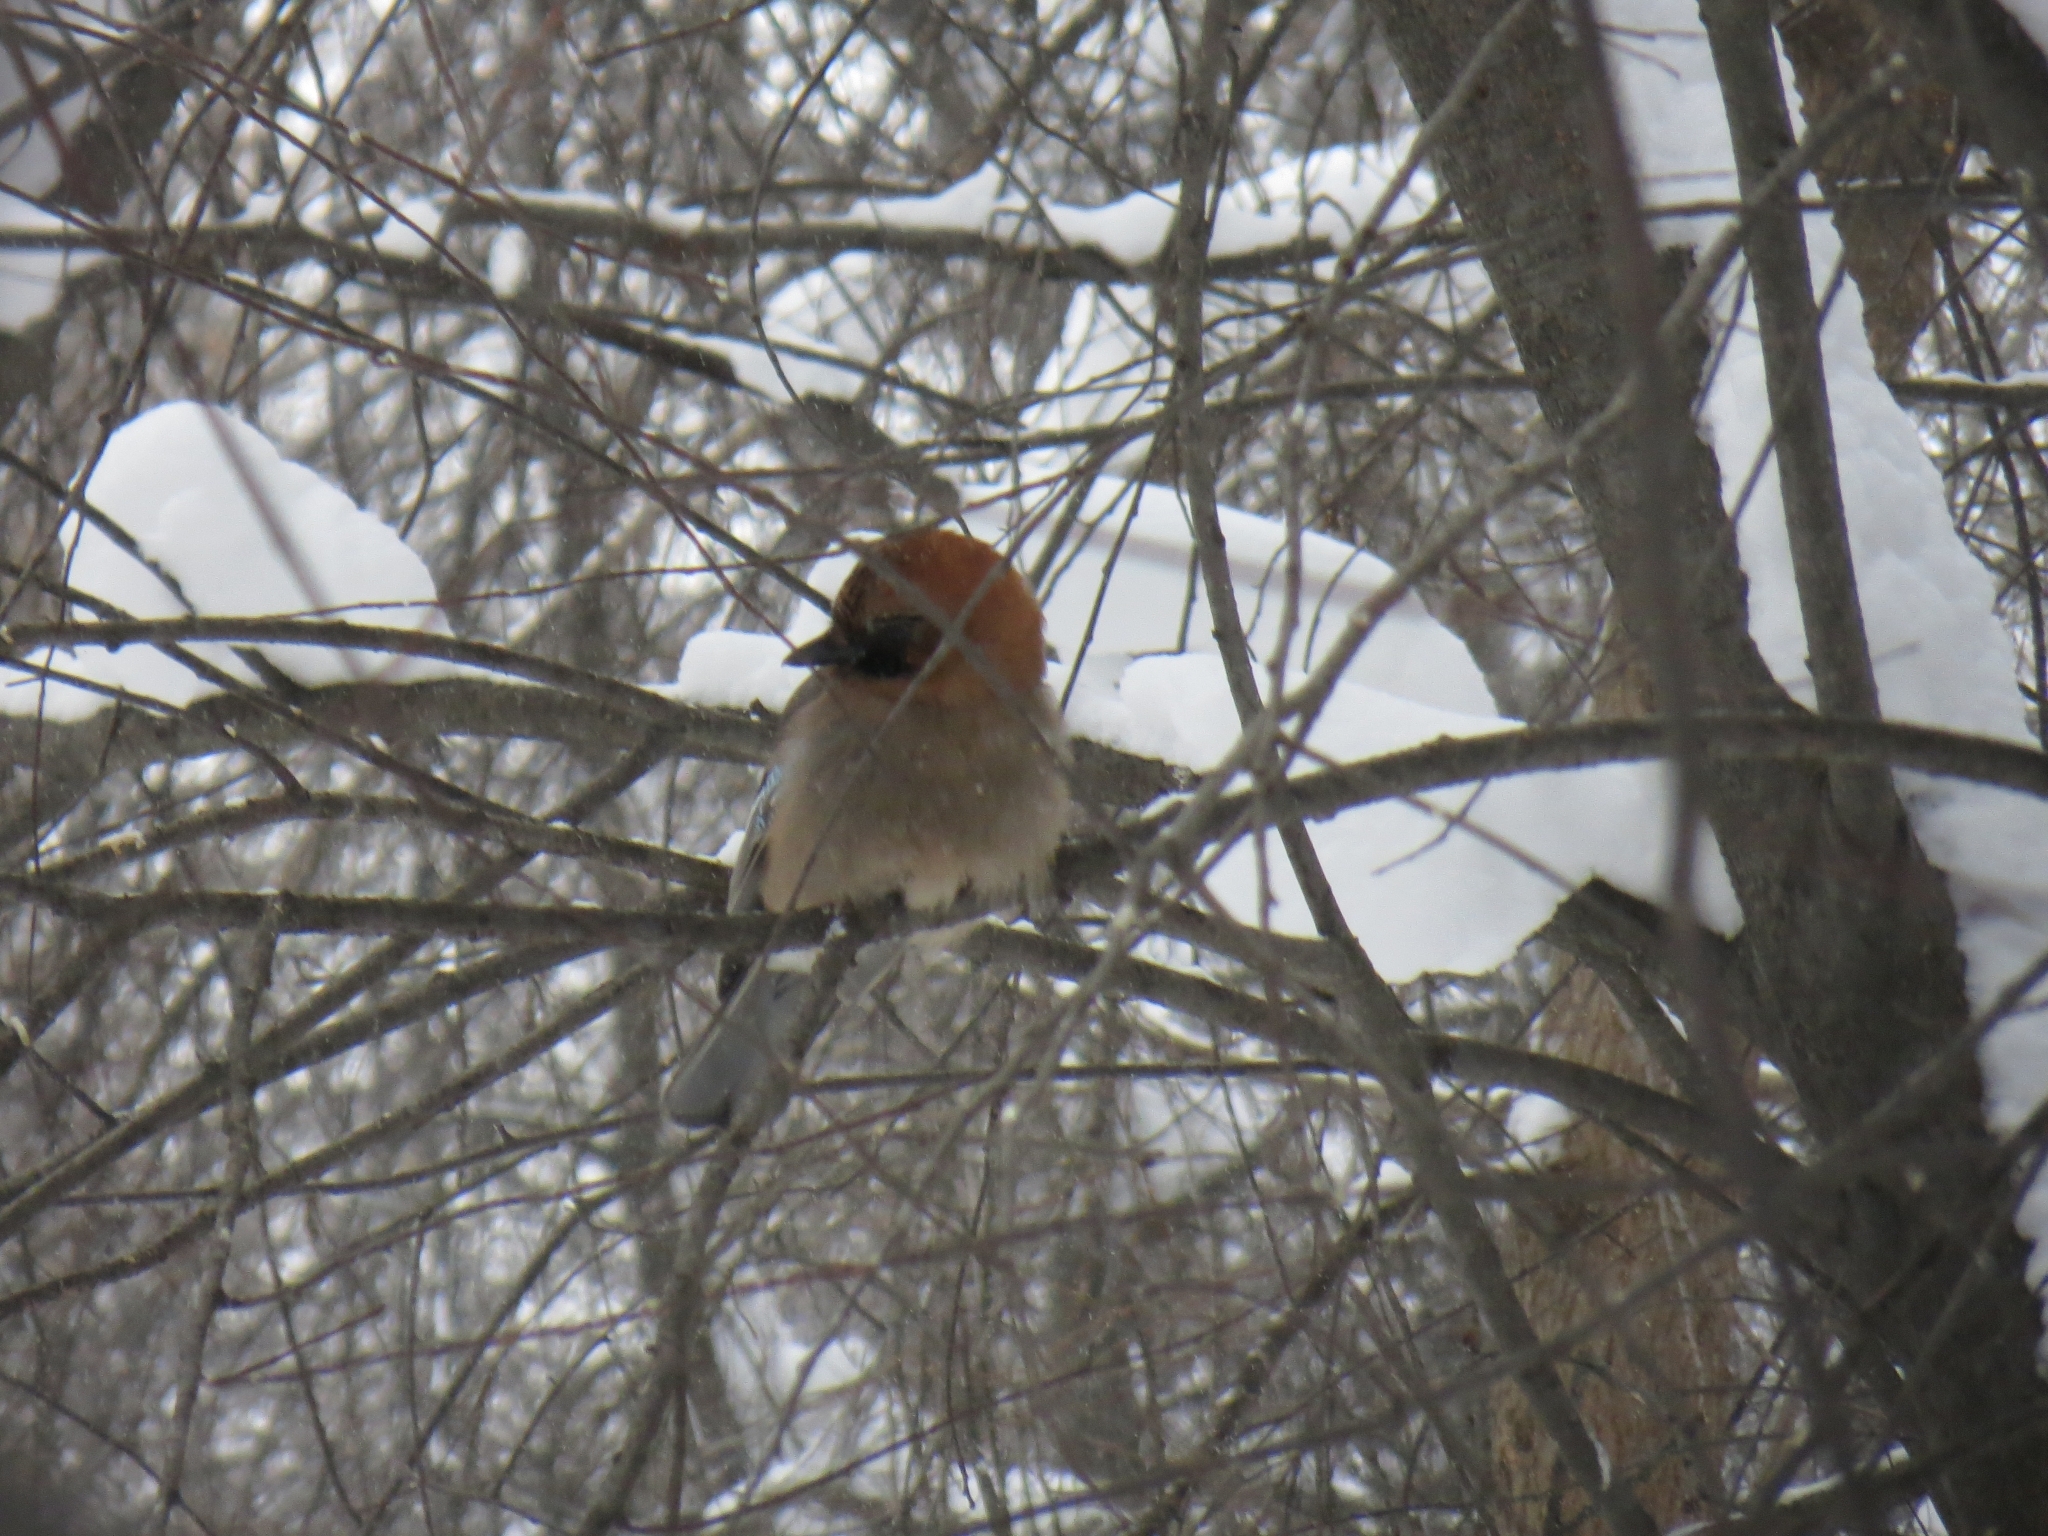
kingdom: Animalia
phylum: Chordata
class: Aves
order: Passeriformes
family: Corvidae
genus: Garrulus
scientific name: Garrulus glandarius
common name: Eurasian jay
